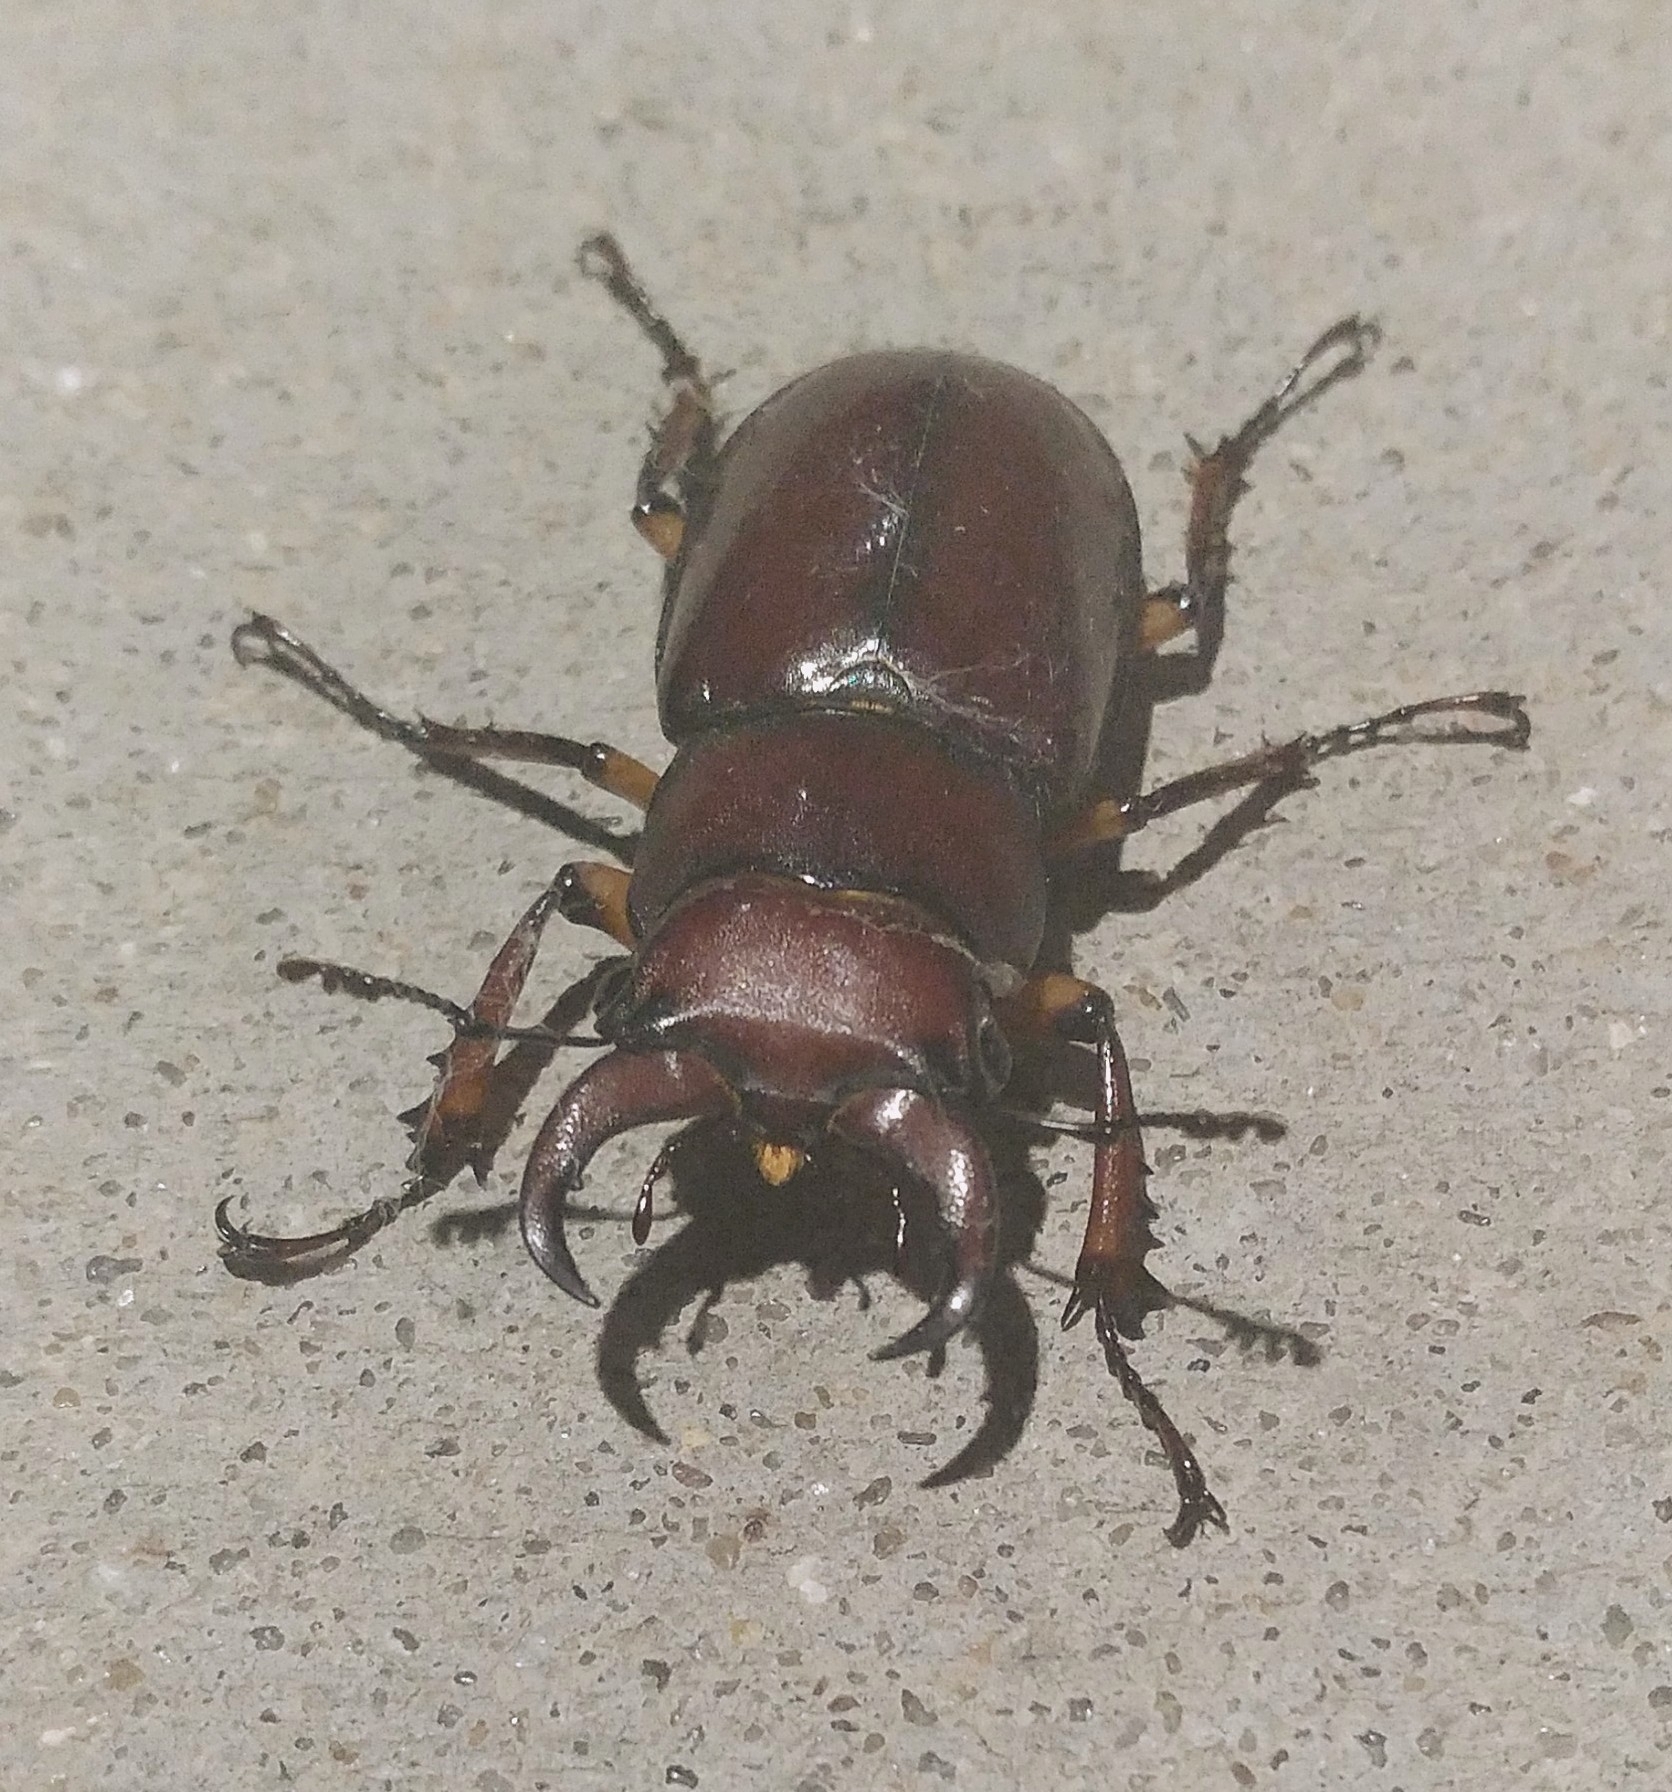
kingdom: Animalia
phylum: Arthropoda
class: Insecta
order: Coleoptera
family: Lucanidae
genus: Lucanus
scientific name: Lucanus capreolus
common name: Stag beetle
